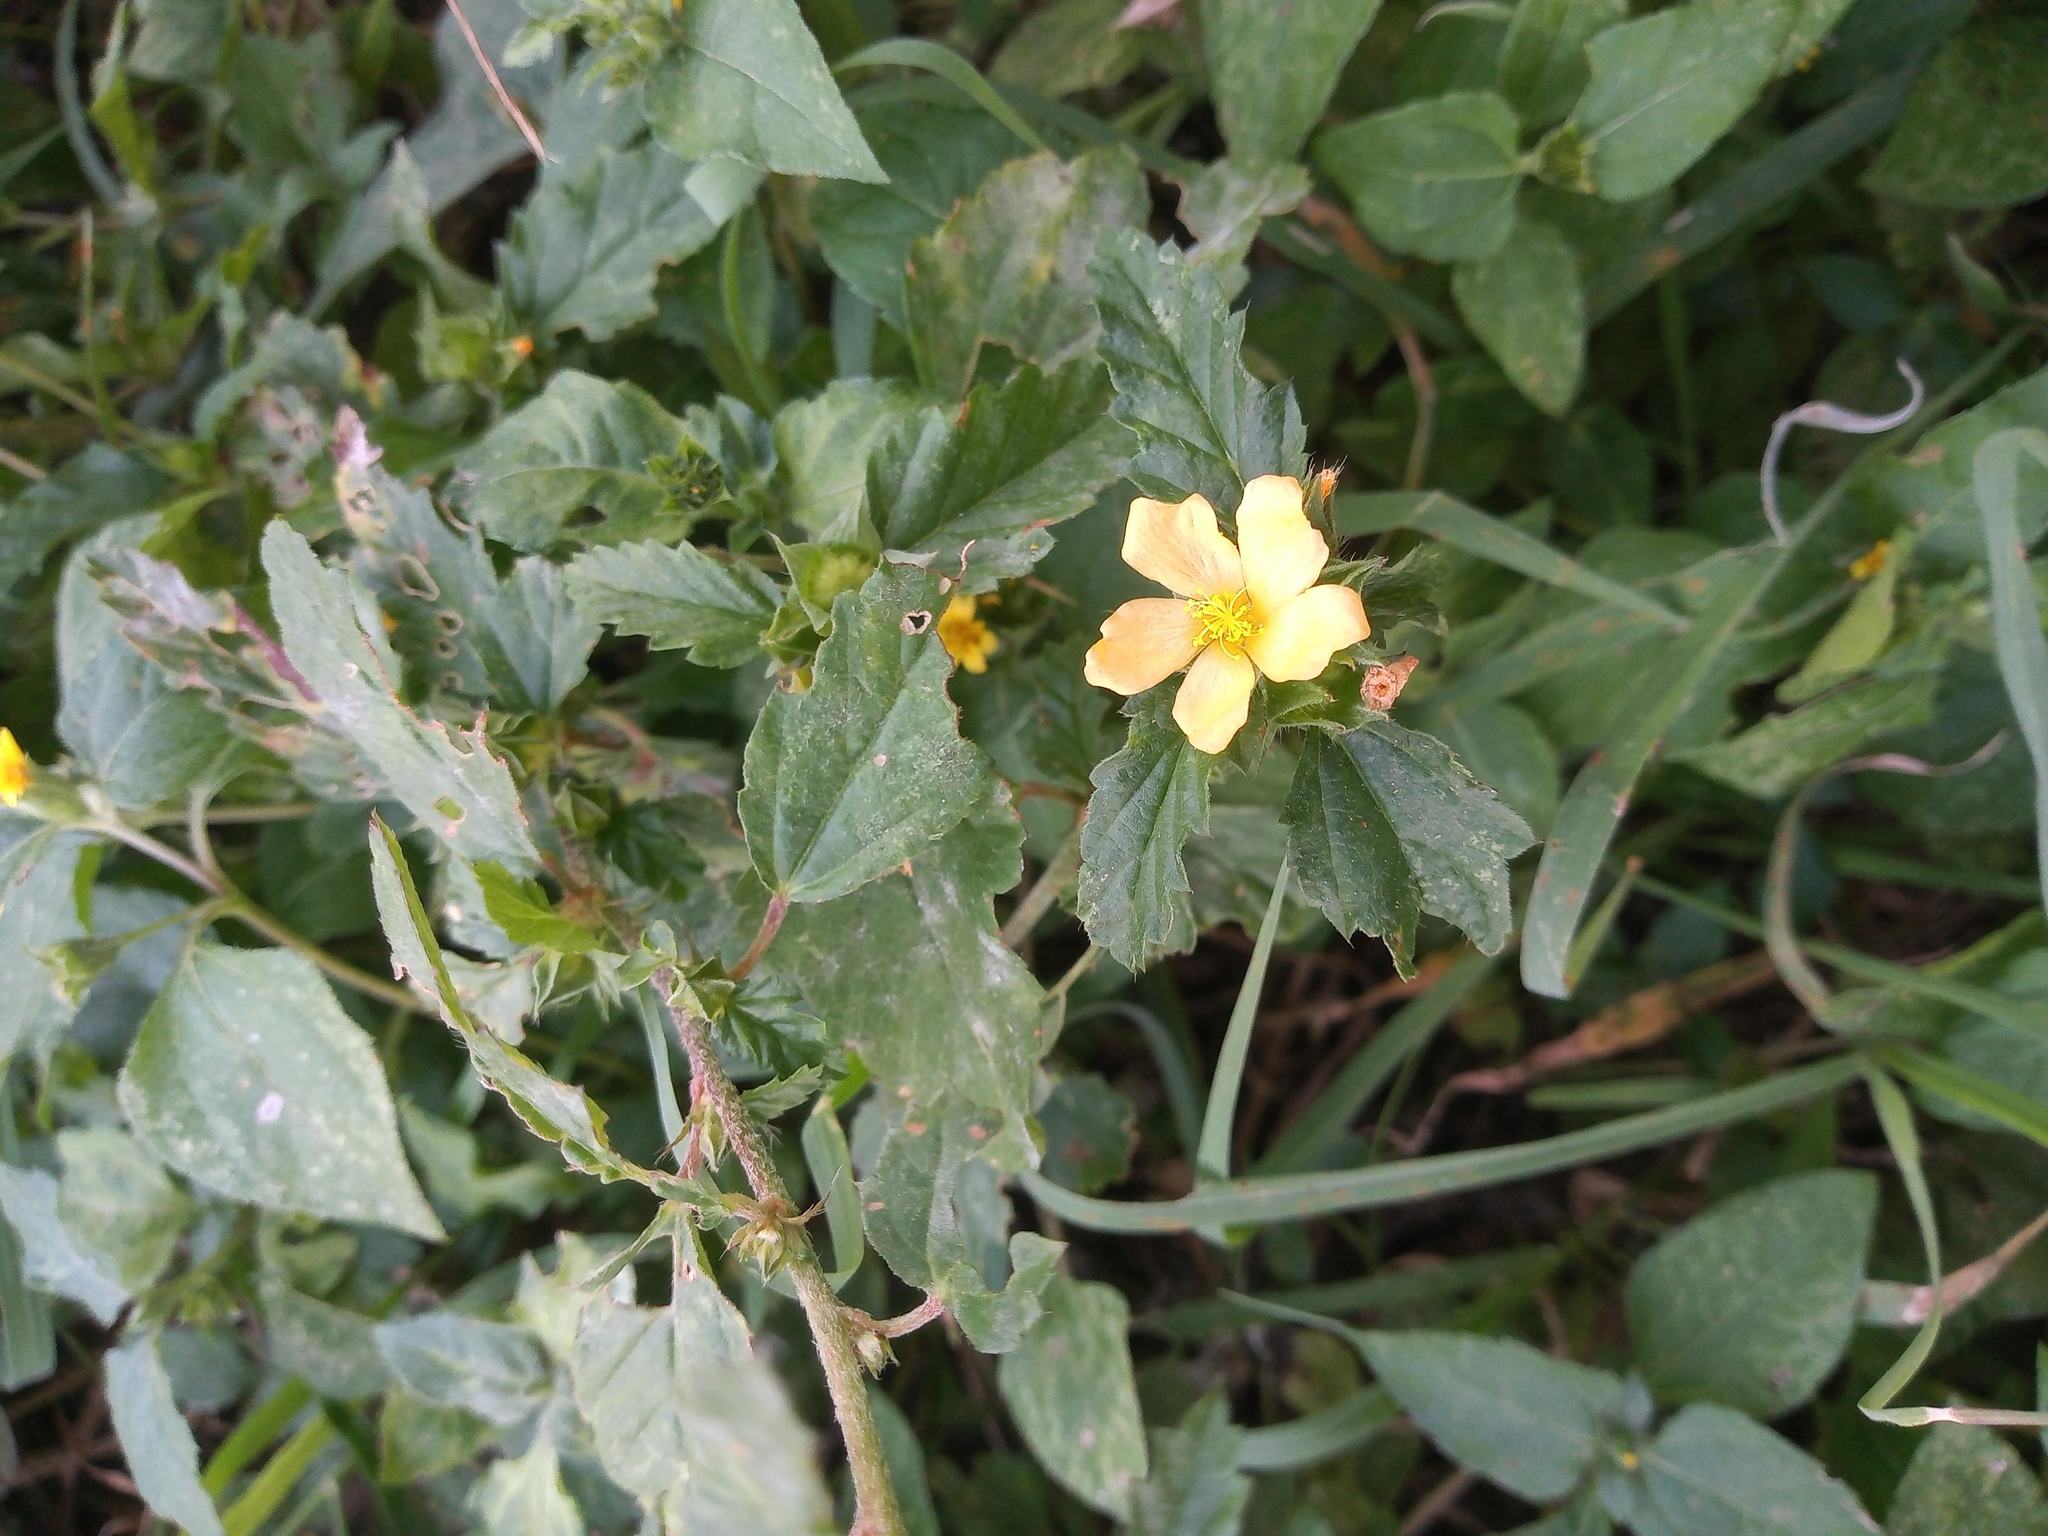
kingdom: Plantae
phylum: Tracheophyta
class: Magnoliopsida
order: Malvales
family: Malvaceae
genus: Malvastrum
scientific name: Malvastrum coromandelianum
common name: Threelobe false mallow
